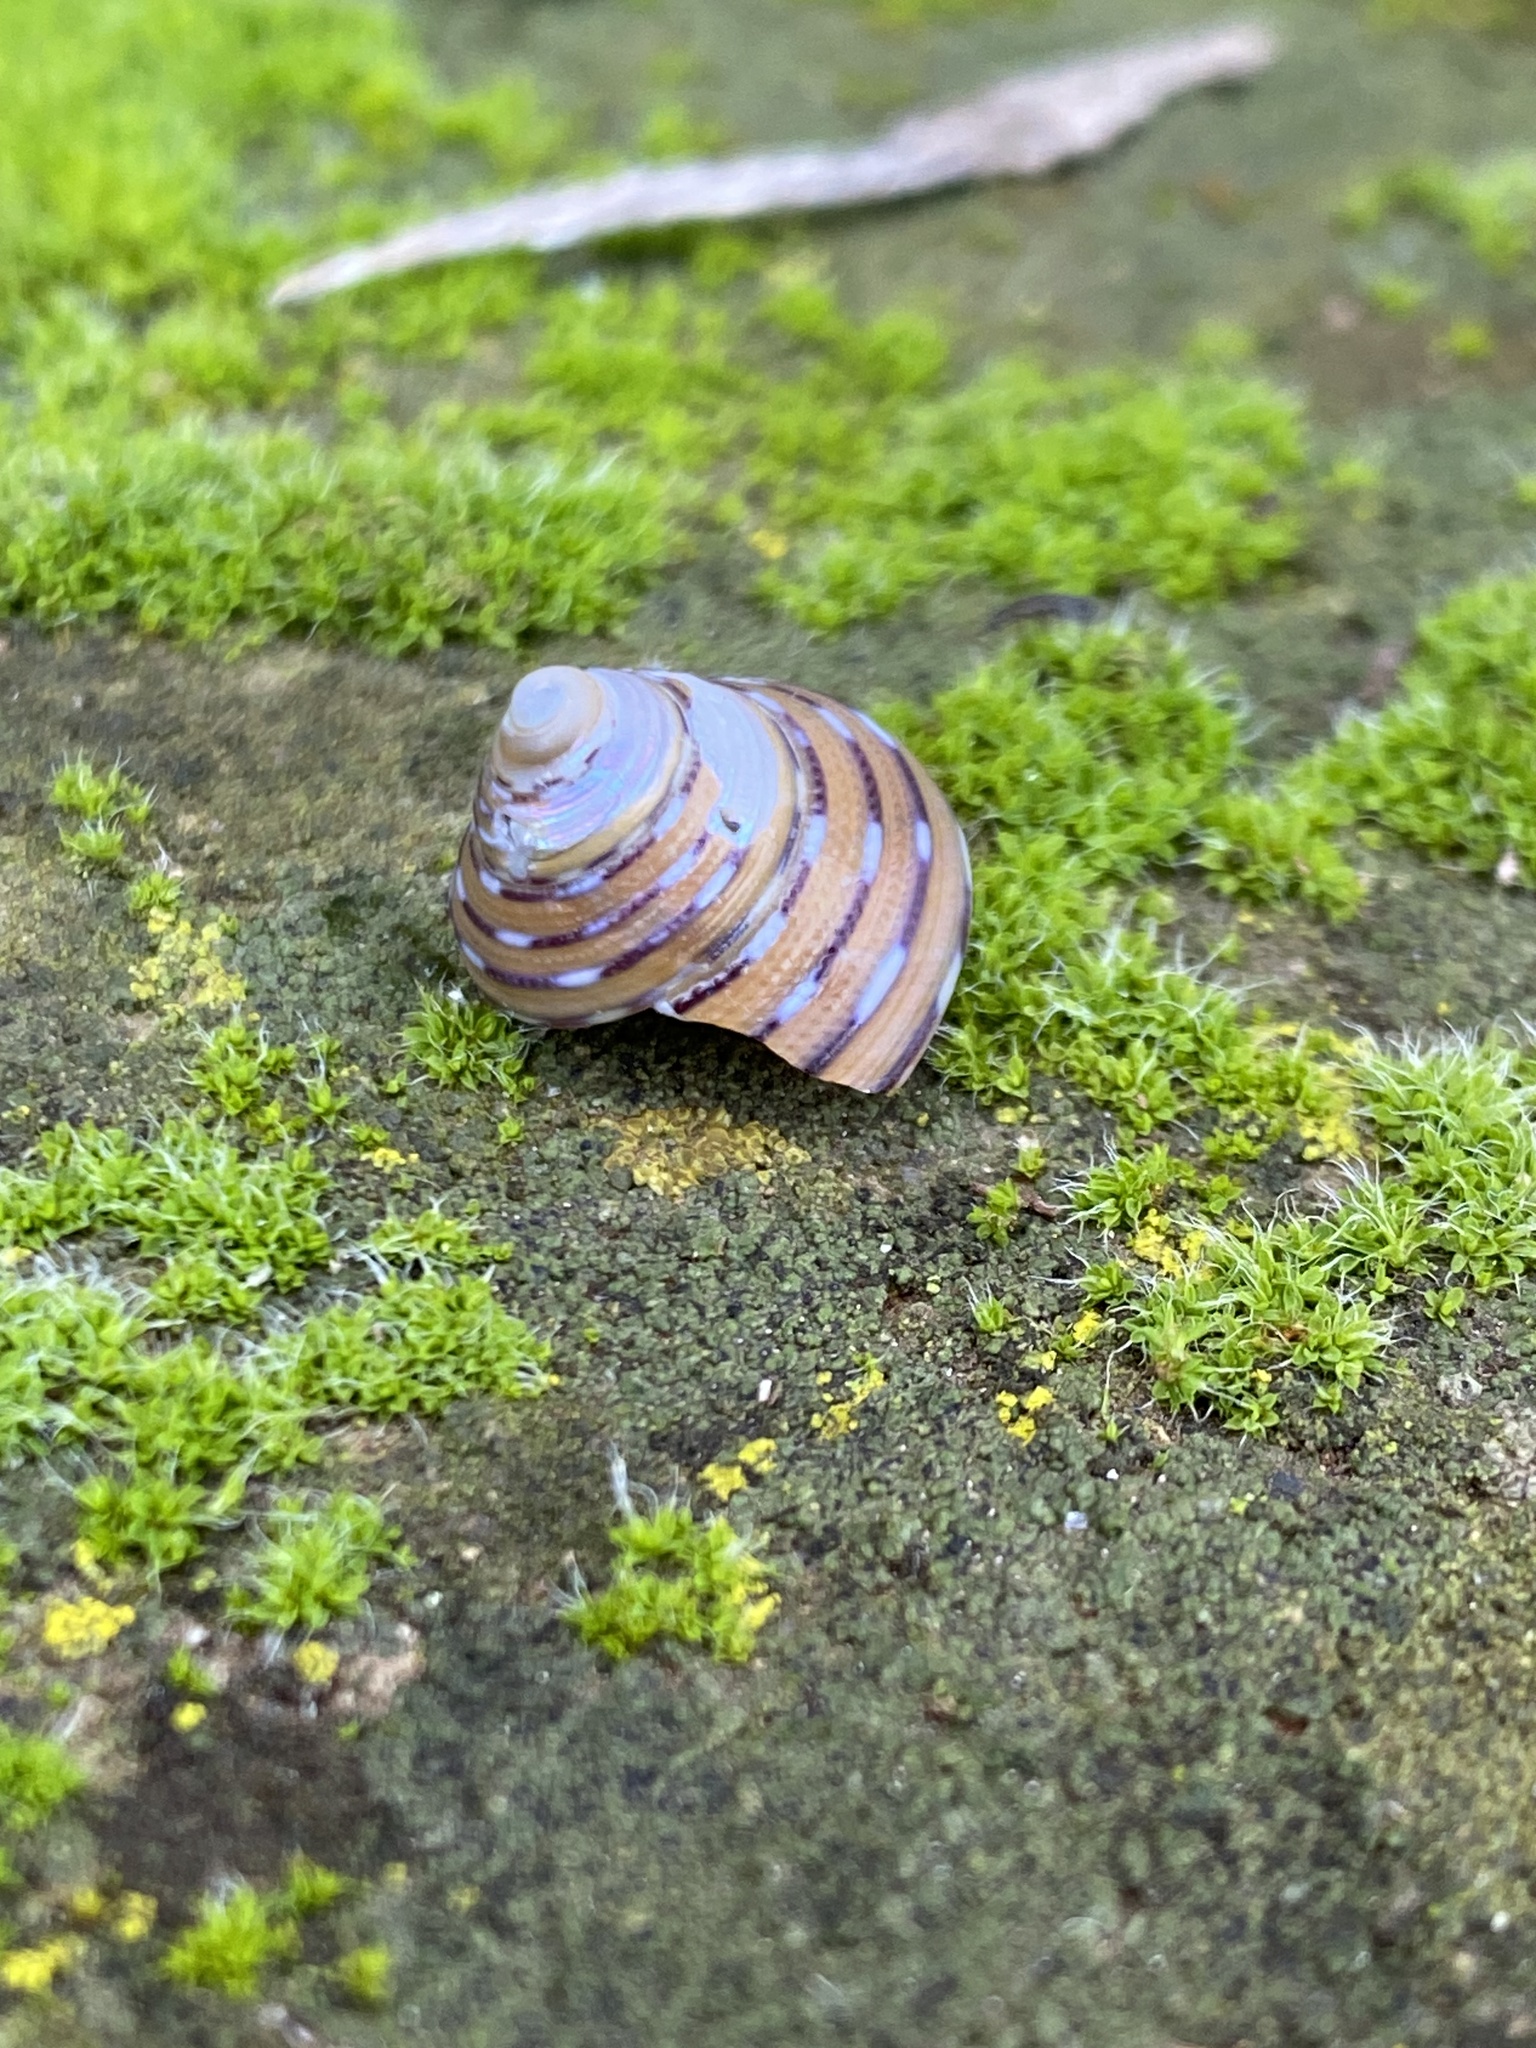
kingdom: Animalia
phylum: Mollusca
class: Gastropoda
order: Trochida
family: Calliostomatidae
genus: Calliostoma
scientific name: Calliostoma tricolor
